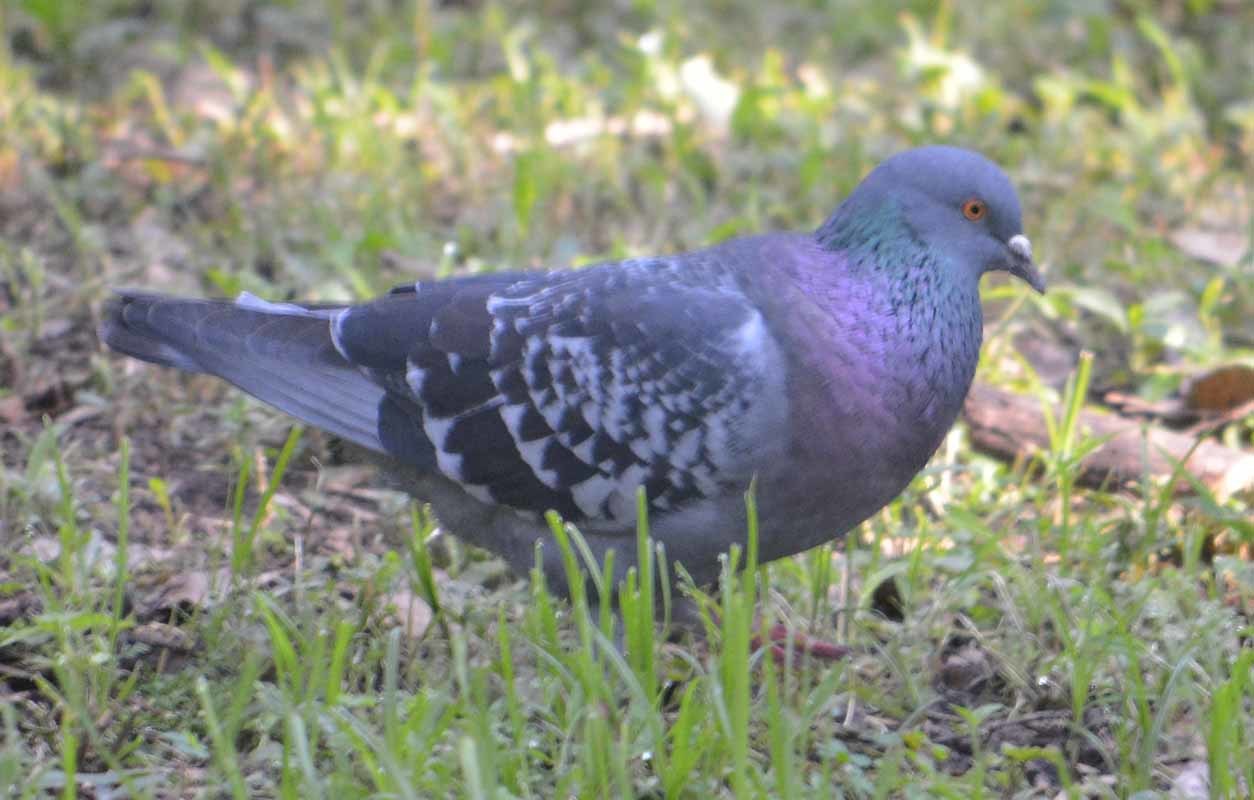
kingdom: Animalia
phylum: Chordata
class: Aves
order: Columbiformes
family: Columbidae
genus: Columba
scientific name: Columba livia
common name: Rock pigeon
